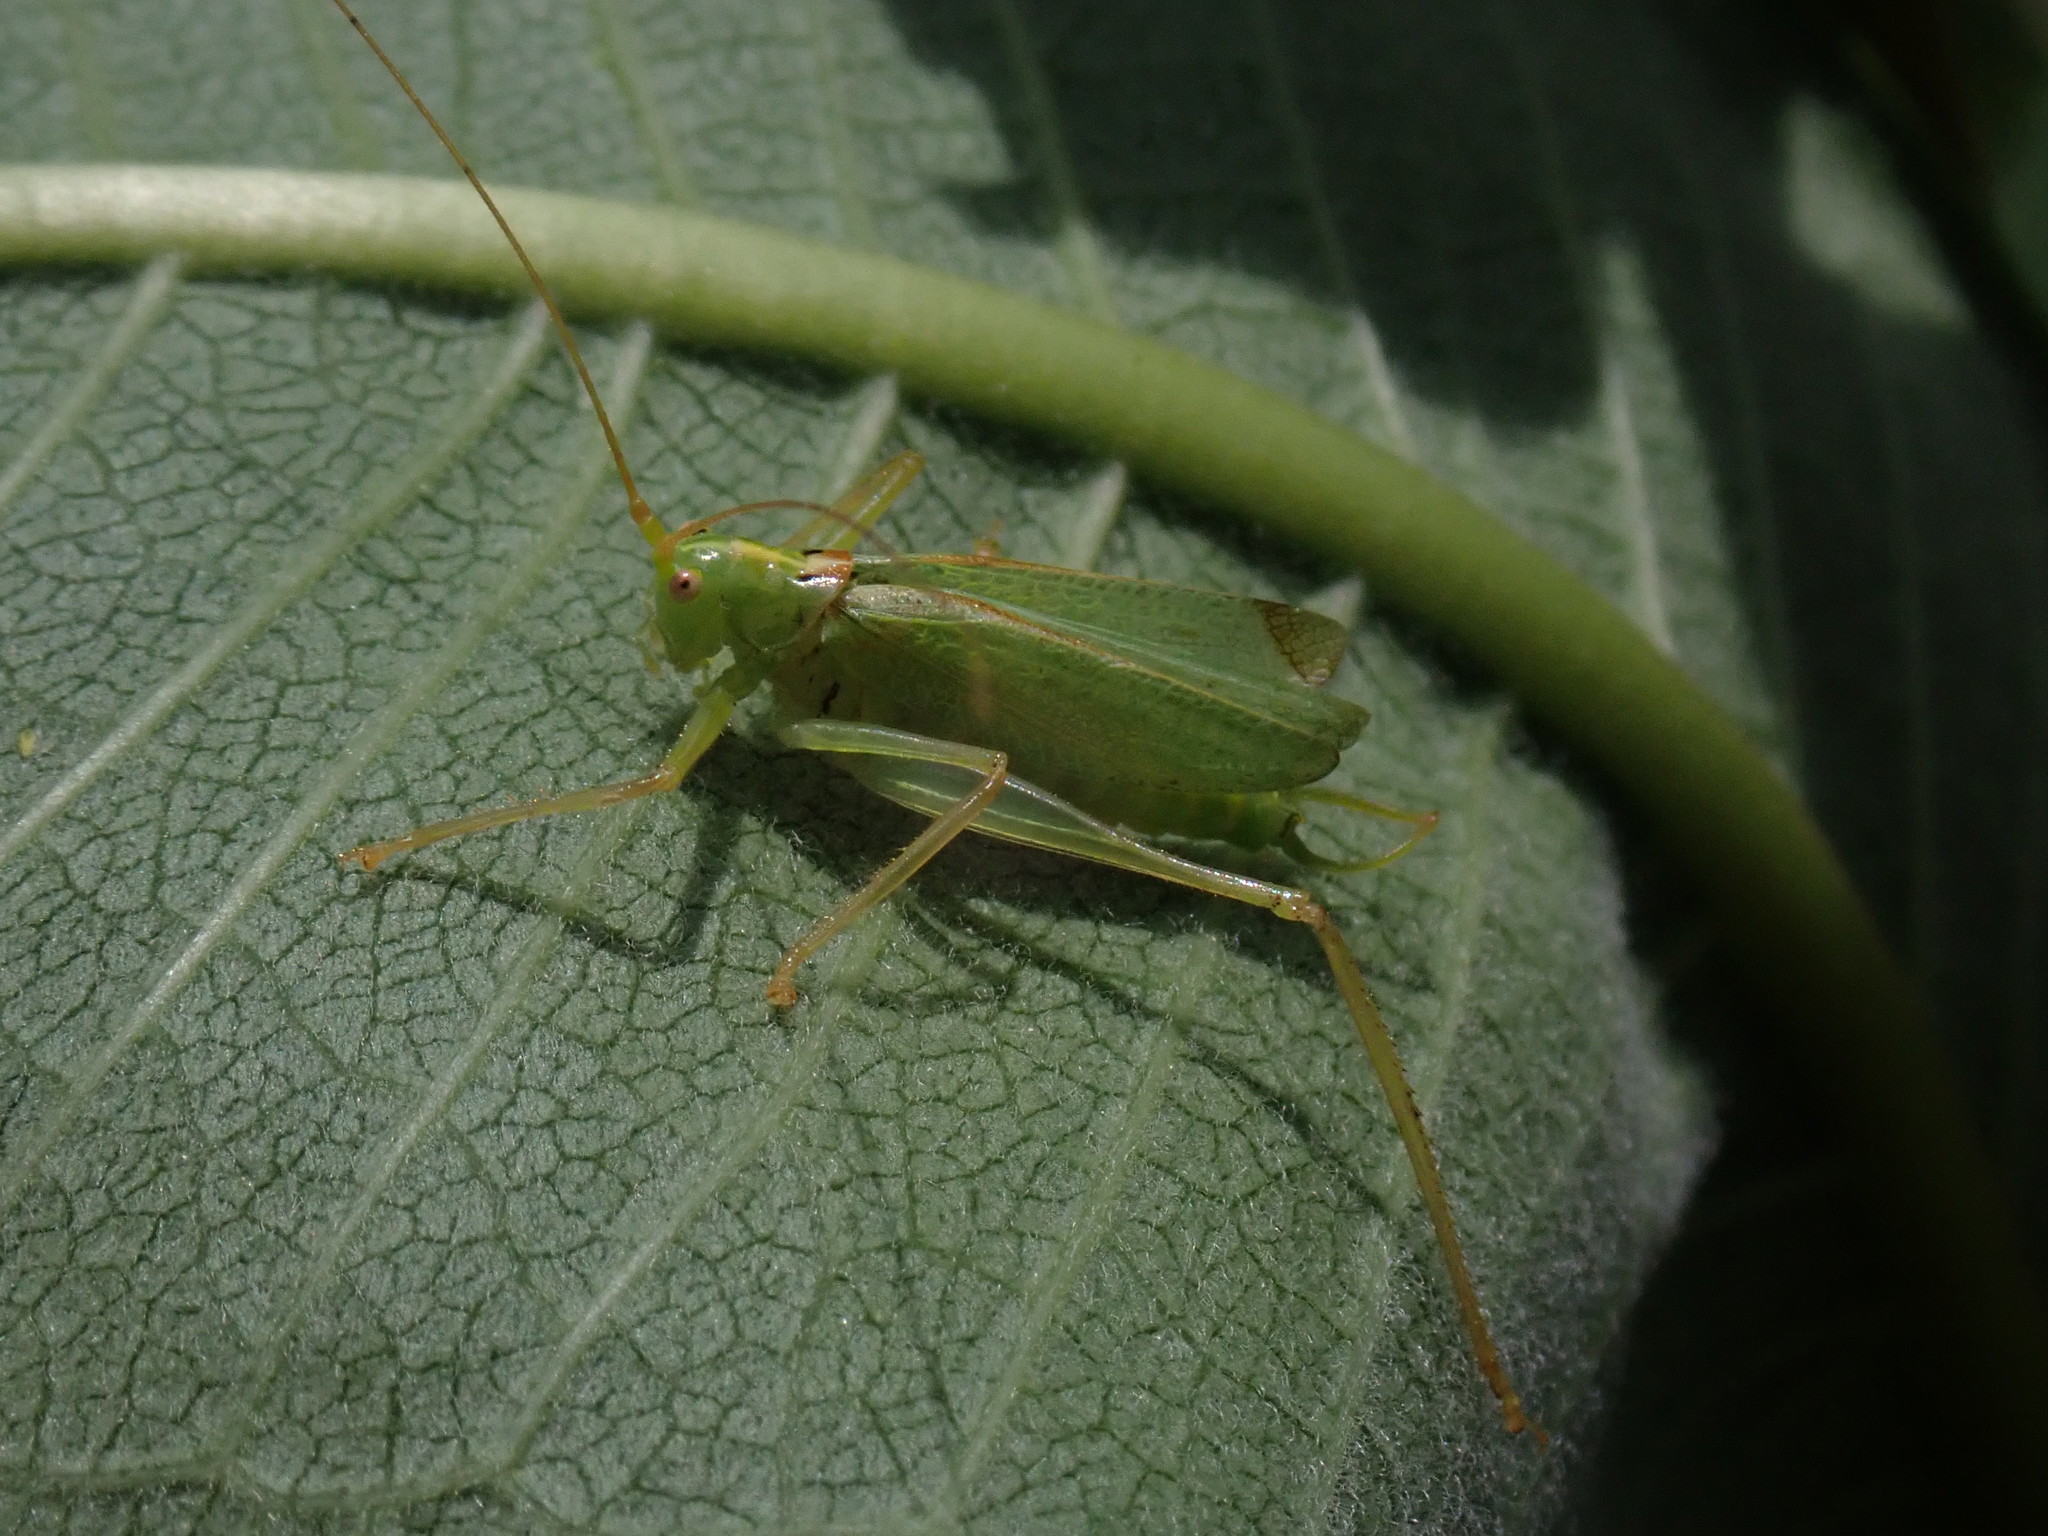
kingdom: Animalia
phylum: Arthropoda
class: Insecta
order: Orthoptera
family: Tettigoniidae
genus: Meconema
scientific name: Meconema thalassinum
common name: Oak bush-cricket
